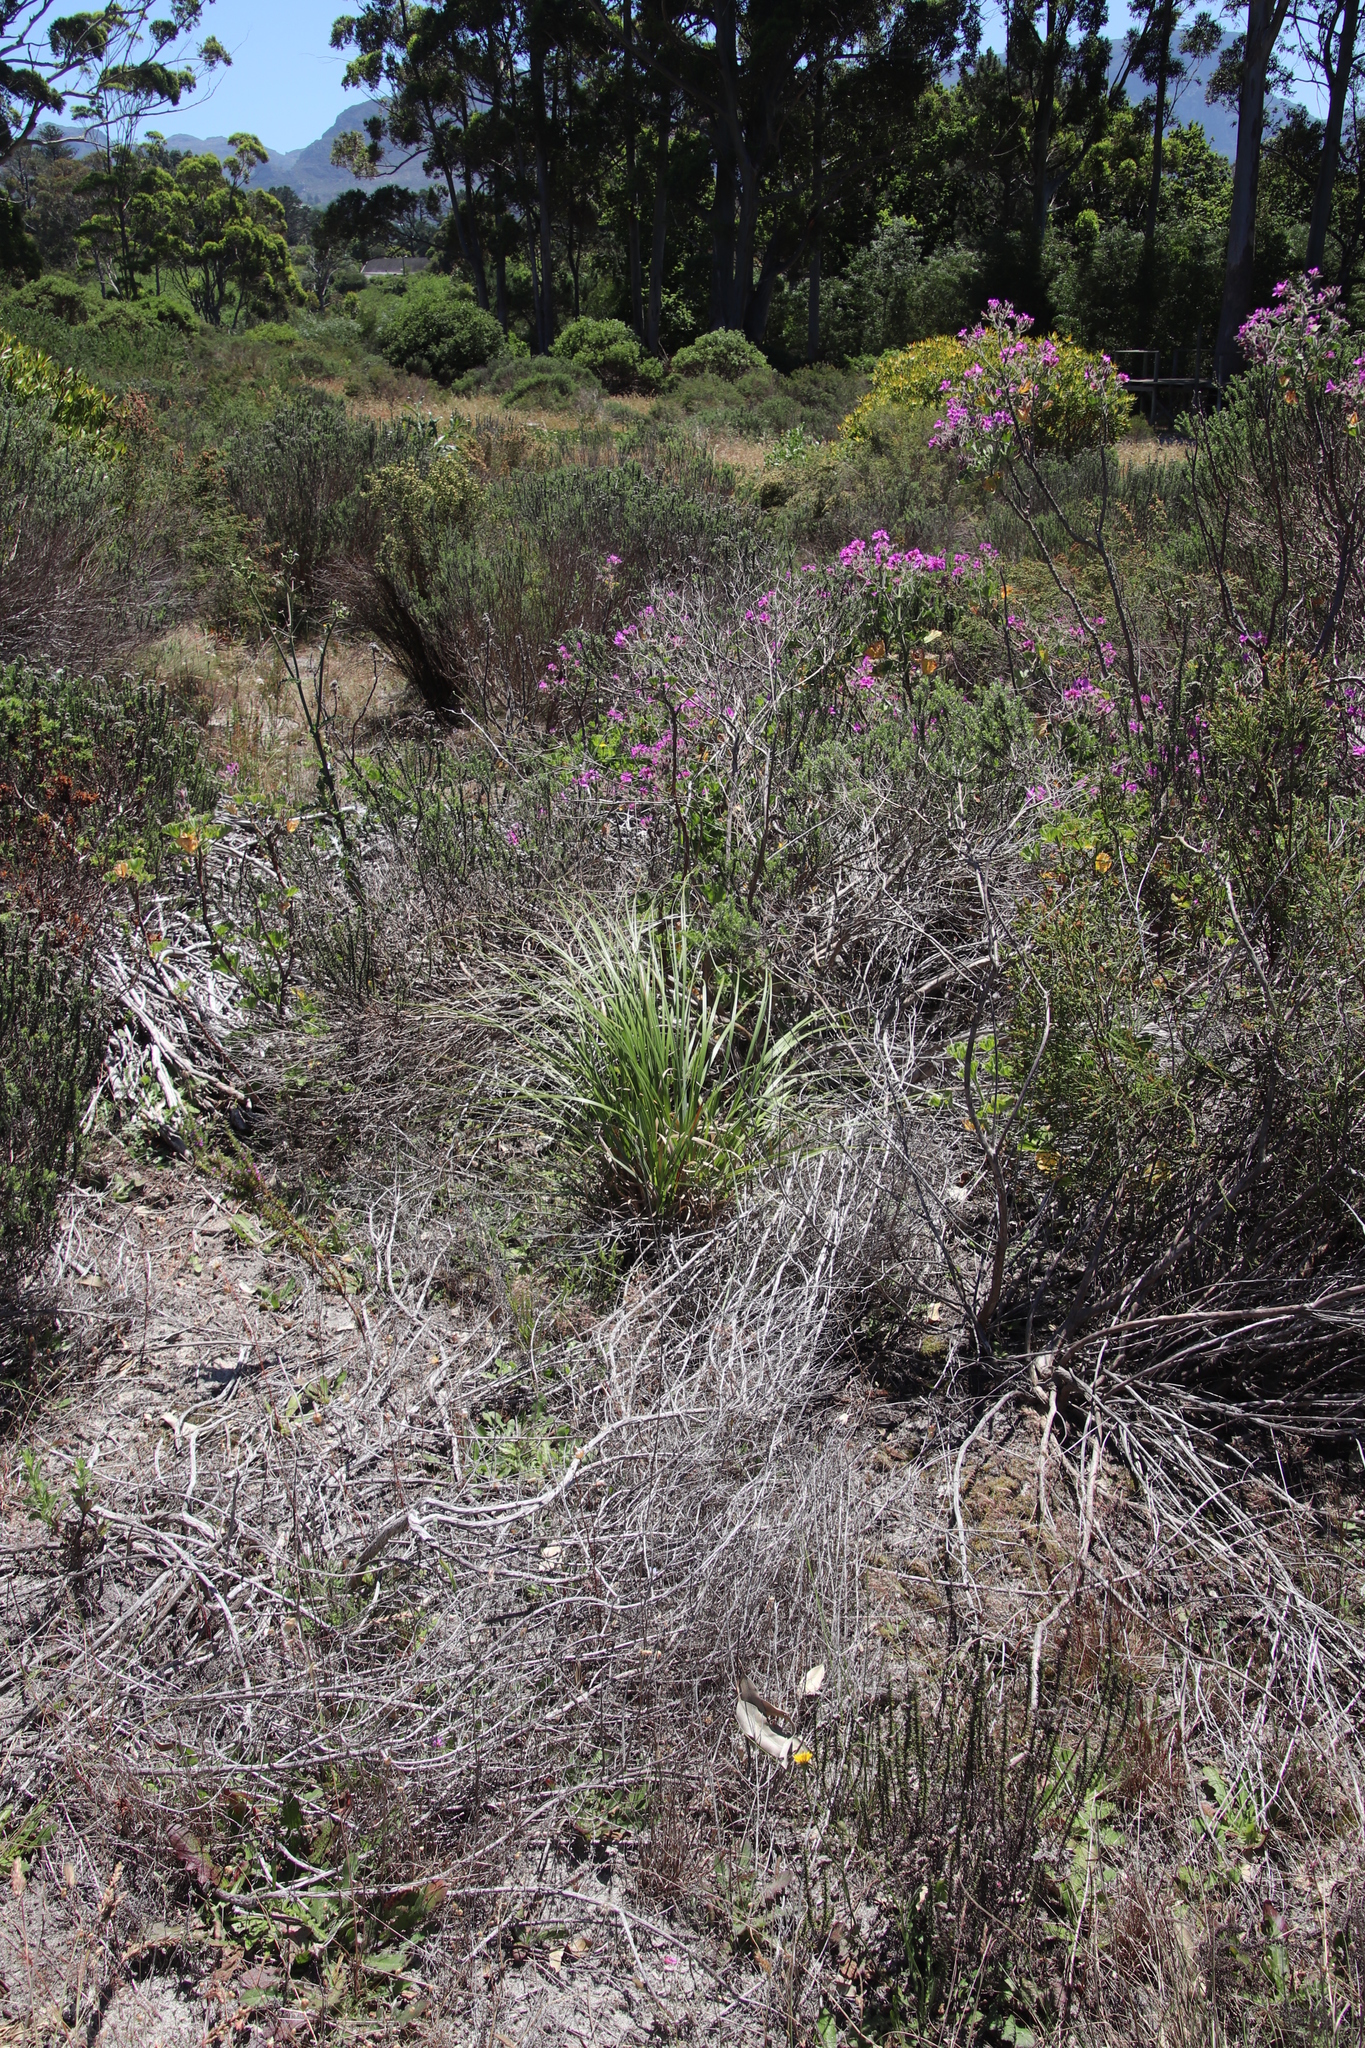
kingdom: Plantae
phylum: Tracheophyta
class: Liliopsida
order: Poales
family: Poaceae
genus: Cortaderia
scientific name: Cortaderia selloana
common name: Uruguayan pampas grass
